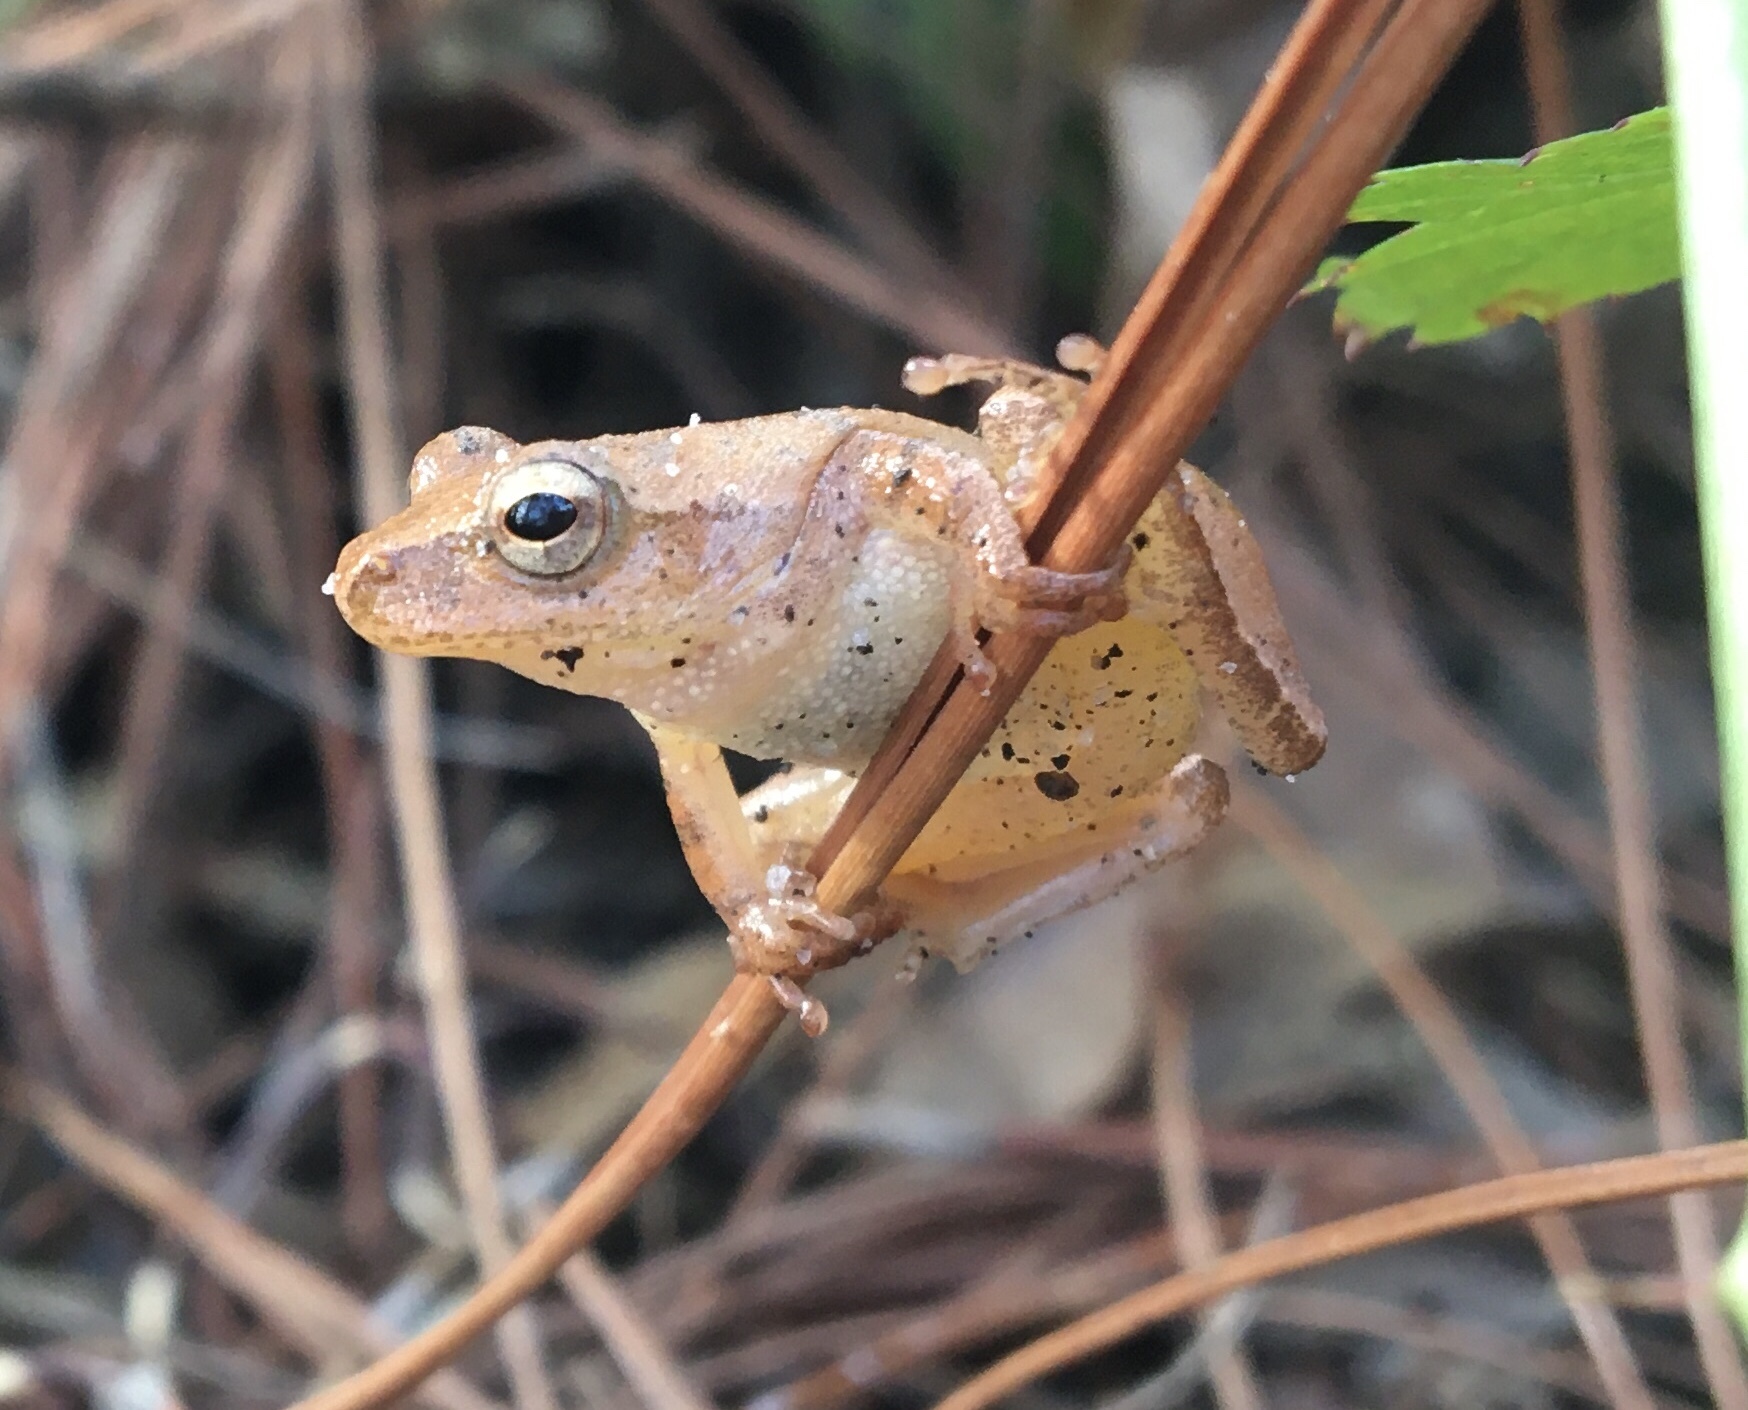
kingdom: Animalia
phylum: Chordata
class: Amphibia
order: Anura
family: Hylidae
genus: Pseudacris
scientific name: Pseudacris crucifer
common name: Spring peeper
